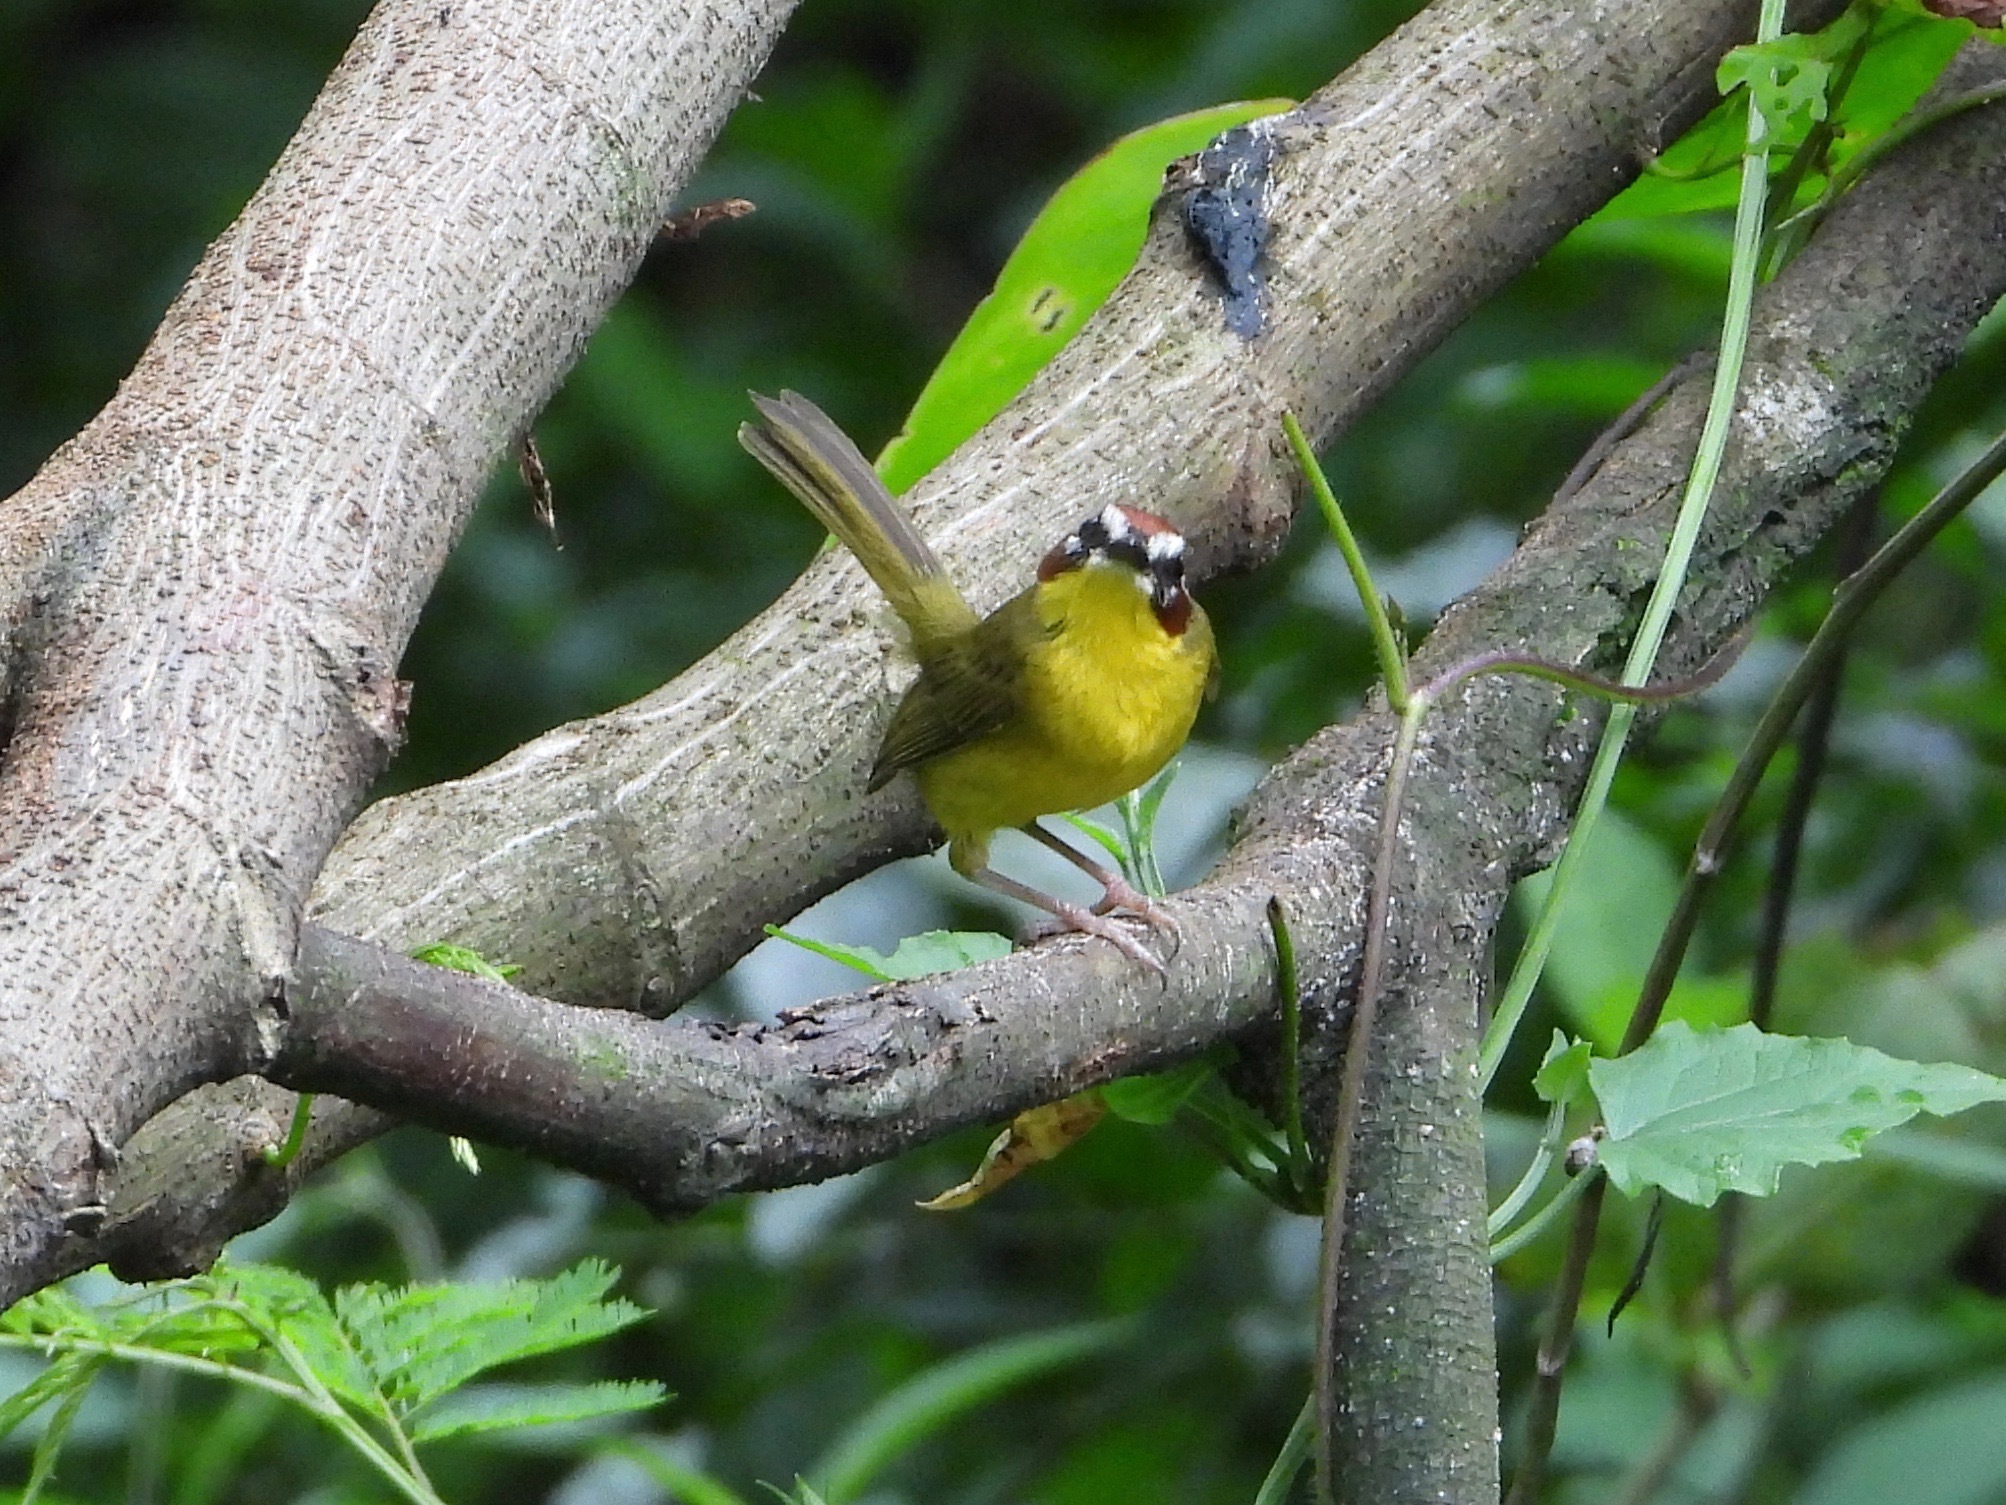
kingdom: Animalia
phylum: Chordata
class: Aves
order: Passeriformes
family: Parulidae
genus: Basileuterus
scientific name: Basileuterus rufifrons
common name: Rufous-capped warbler
